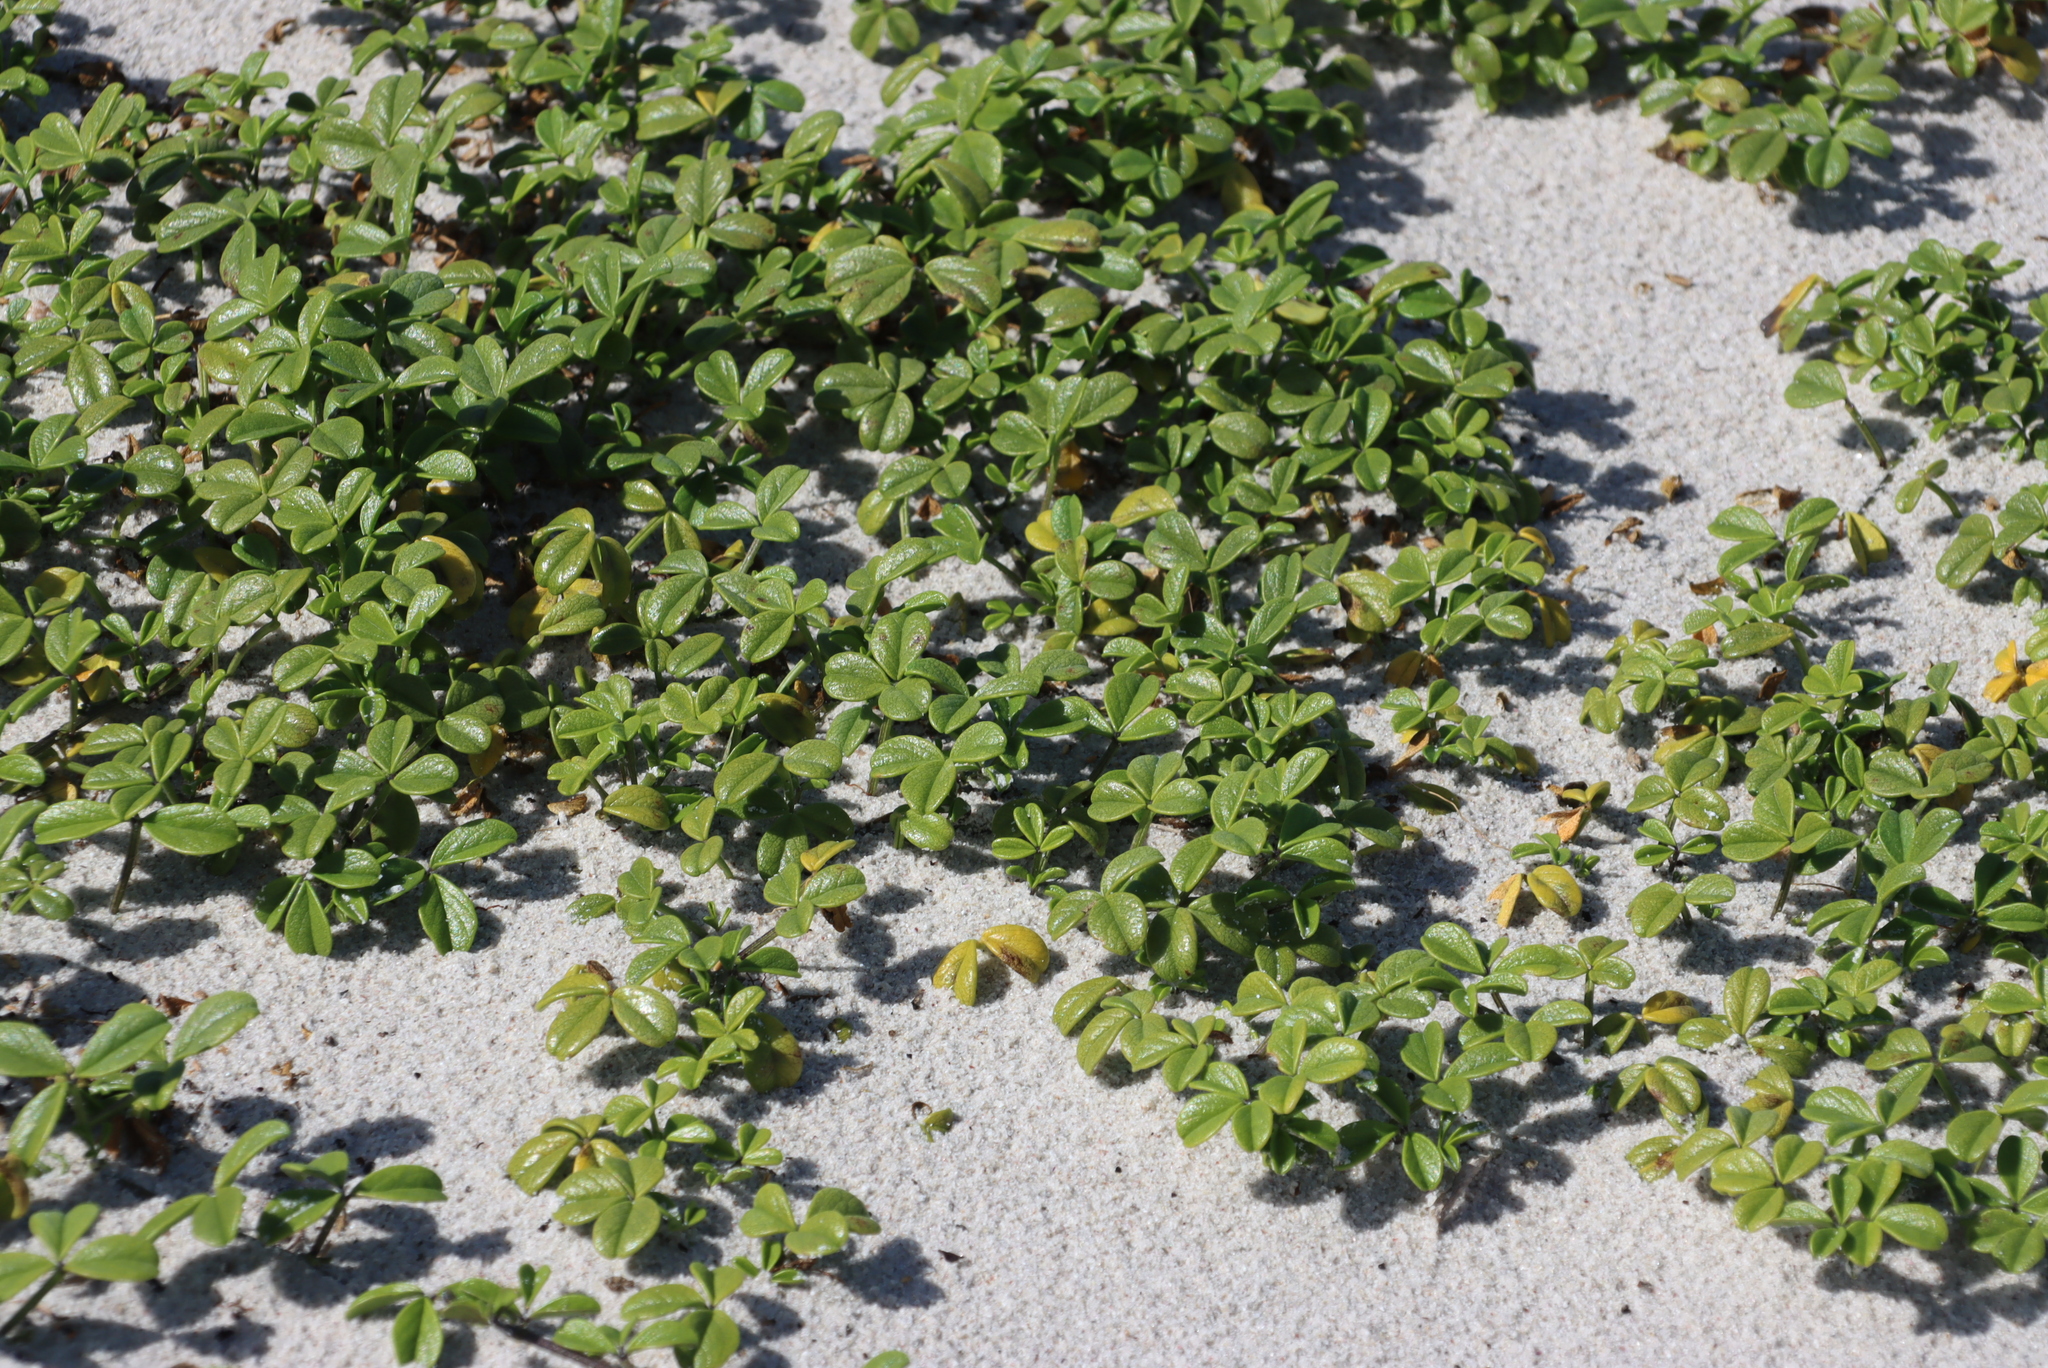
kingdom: Plantae
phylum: Tracheophyta
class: Magnoliopsida
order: Fabales
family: Fabaceae
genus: Psoralea
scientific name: Psoralea repens
